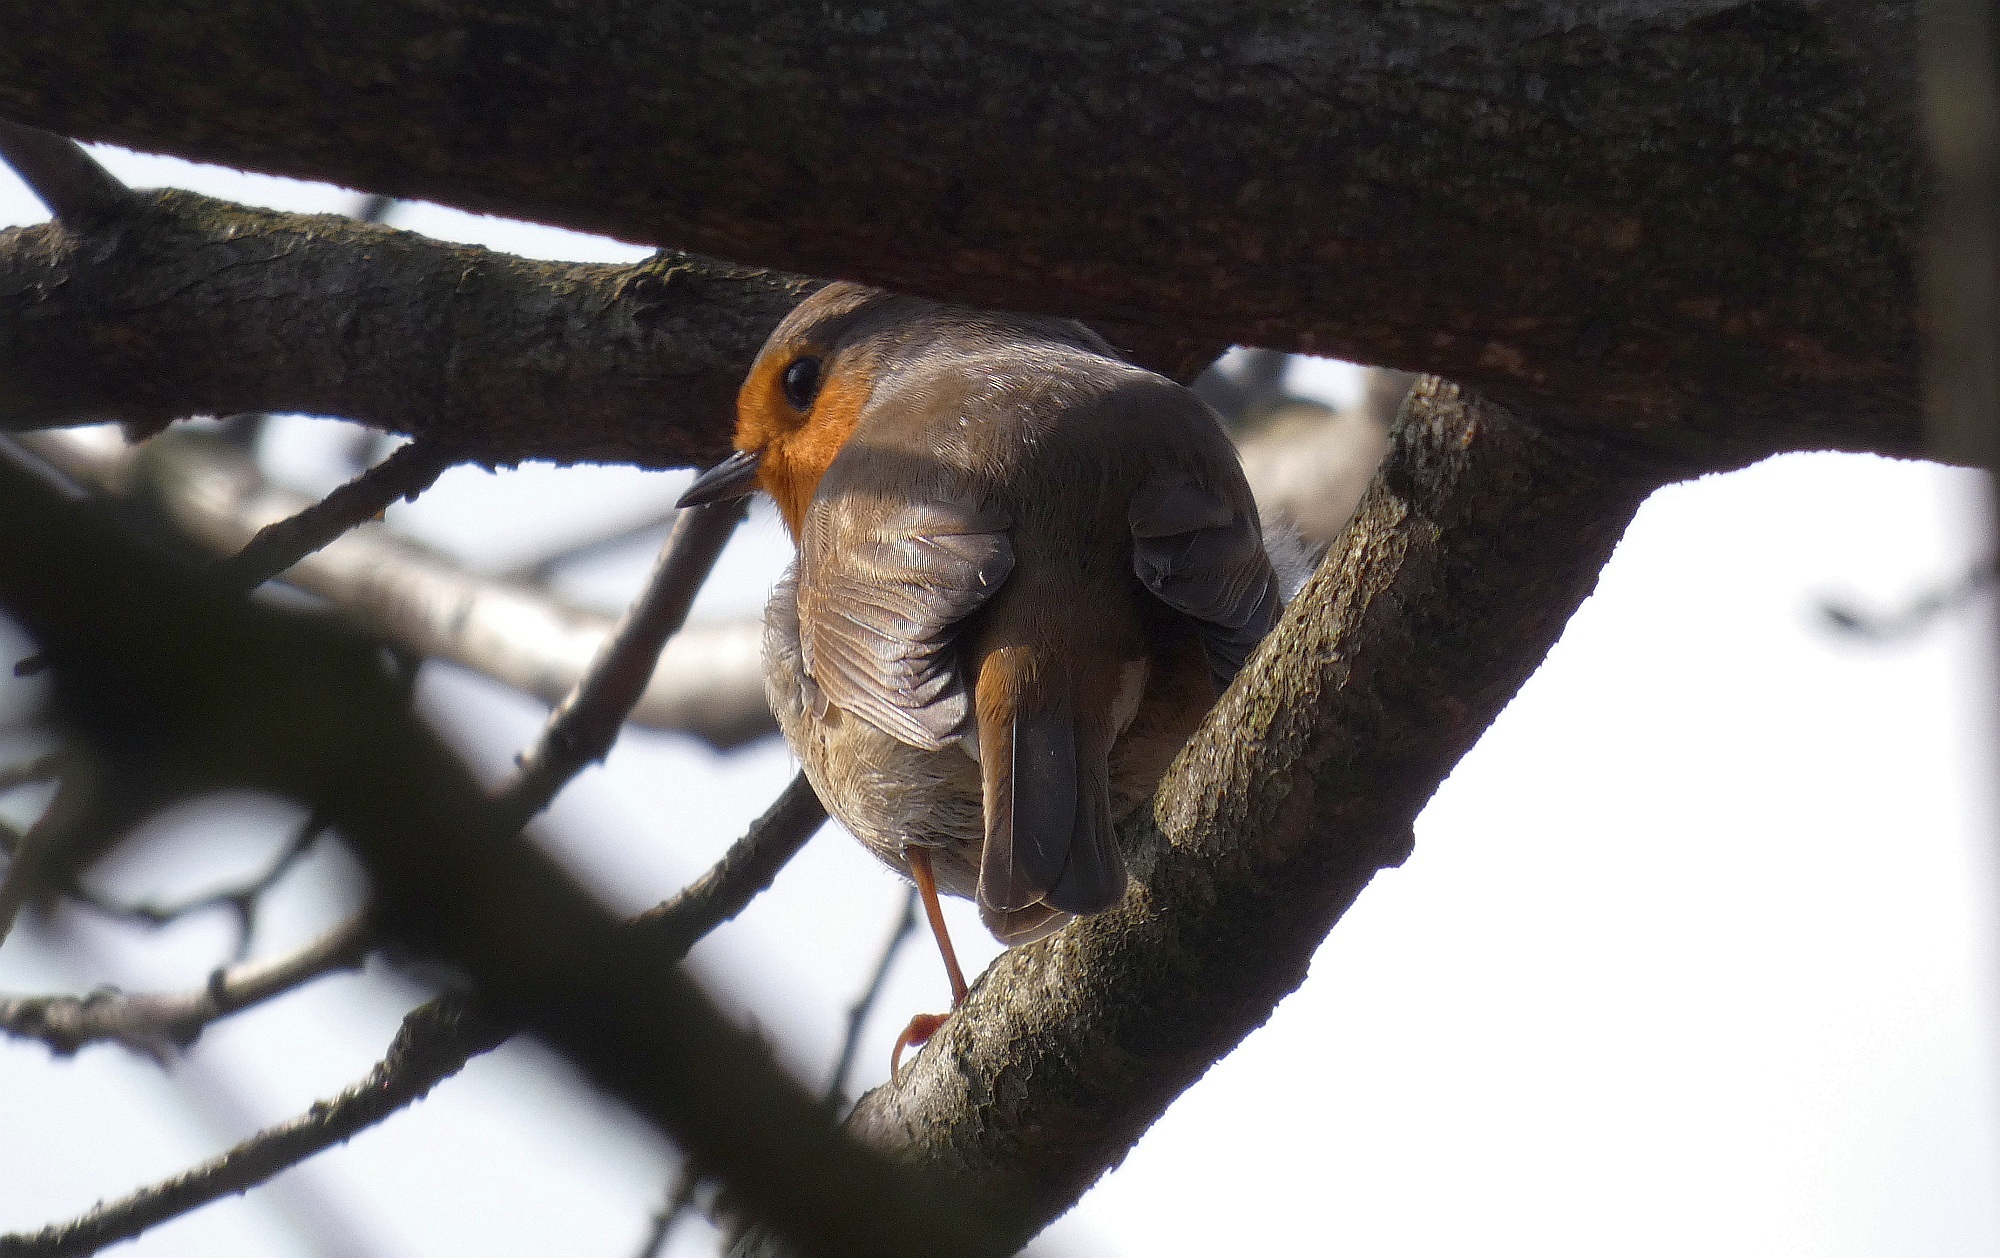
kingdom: Animalia
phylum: Chordata
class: Aves
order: Passeriformes
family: Muscicapidae
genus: Erithacus
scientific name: Erithacus rubecula
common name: European robin
